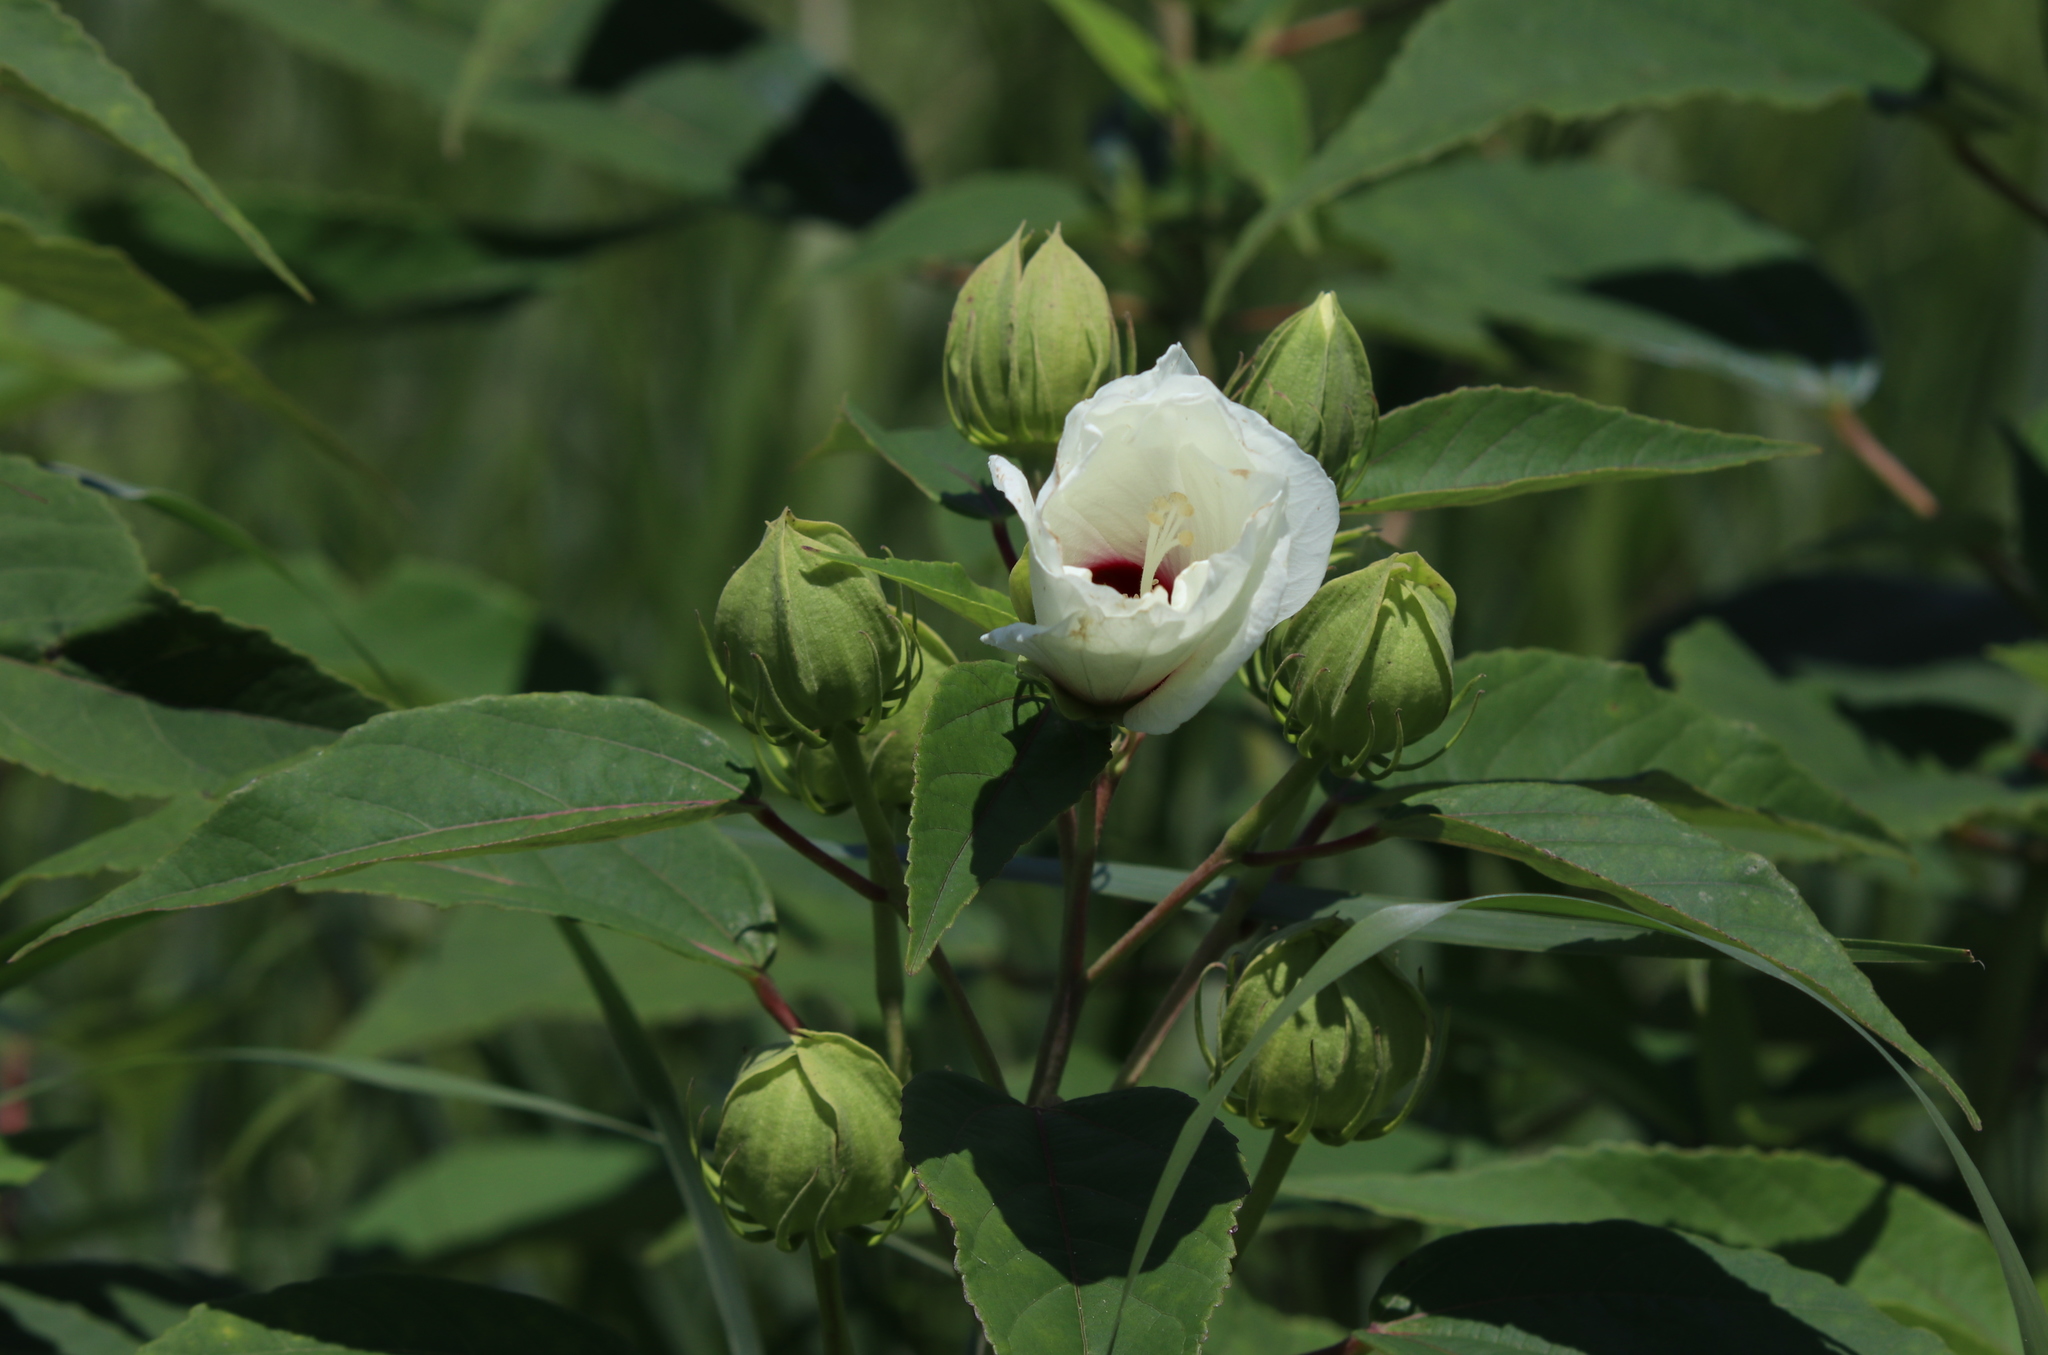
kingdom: Plantae
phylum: Tracheophyta
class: Magnoliopsida
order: Malvales
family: Malvaceae
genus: Hibiscus
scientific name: Hibiscus moscheutos
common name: Common rose-mallow
